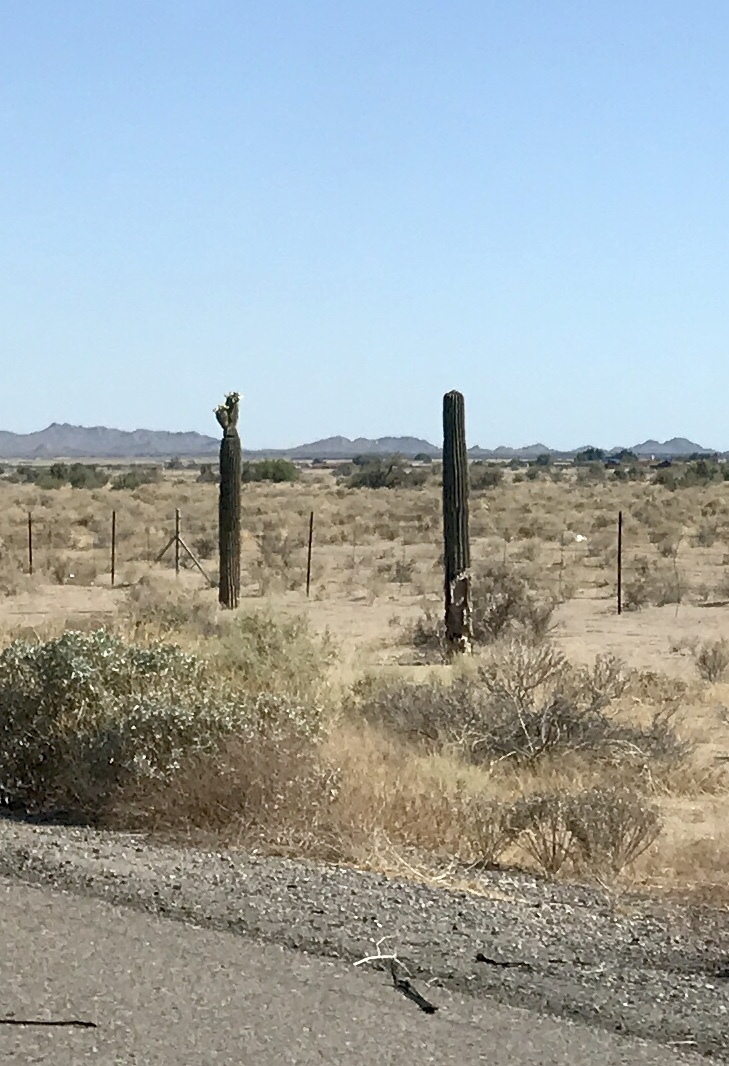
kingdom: Plantae
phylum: Tracheophyta
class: Magnoliopsida
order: Caryophyllales
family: Cactaceae
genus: Carnegiea
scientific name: Carnegiea gigantea
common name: Saguaro
